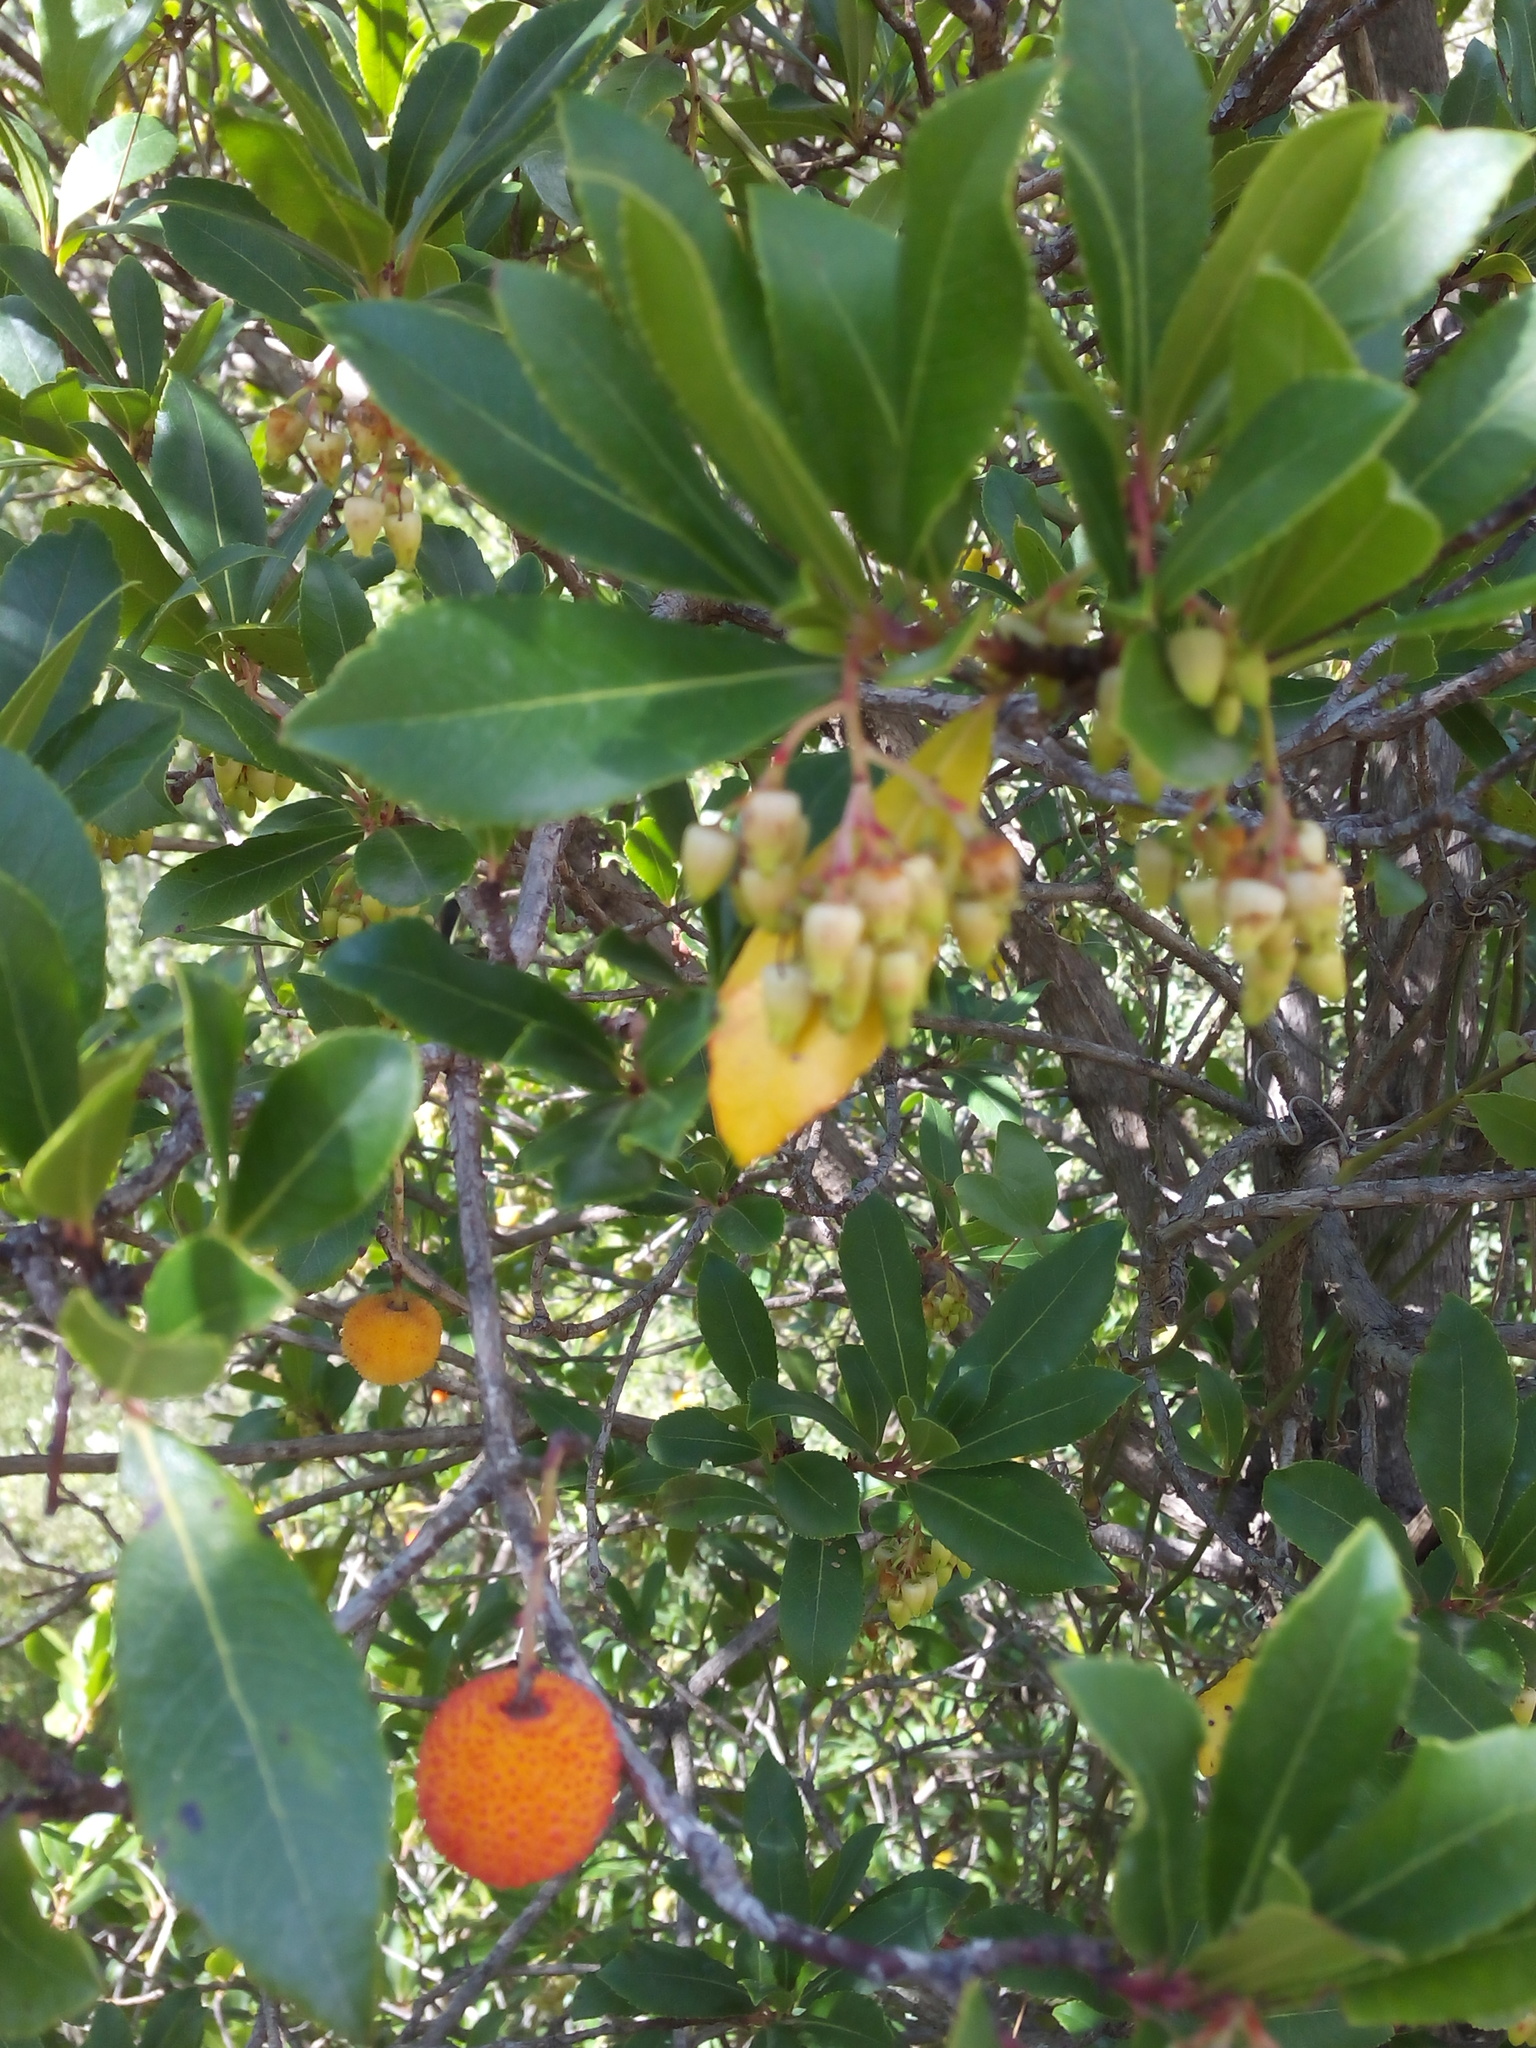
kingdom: Plantae
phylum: Tracheophyta
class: Magnoliopsida
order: Ericales
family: Ericaceae
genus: Arbutus
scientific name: Arbutus unedo
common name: Strawberry-tree
